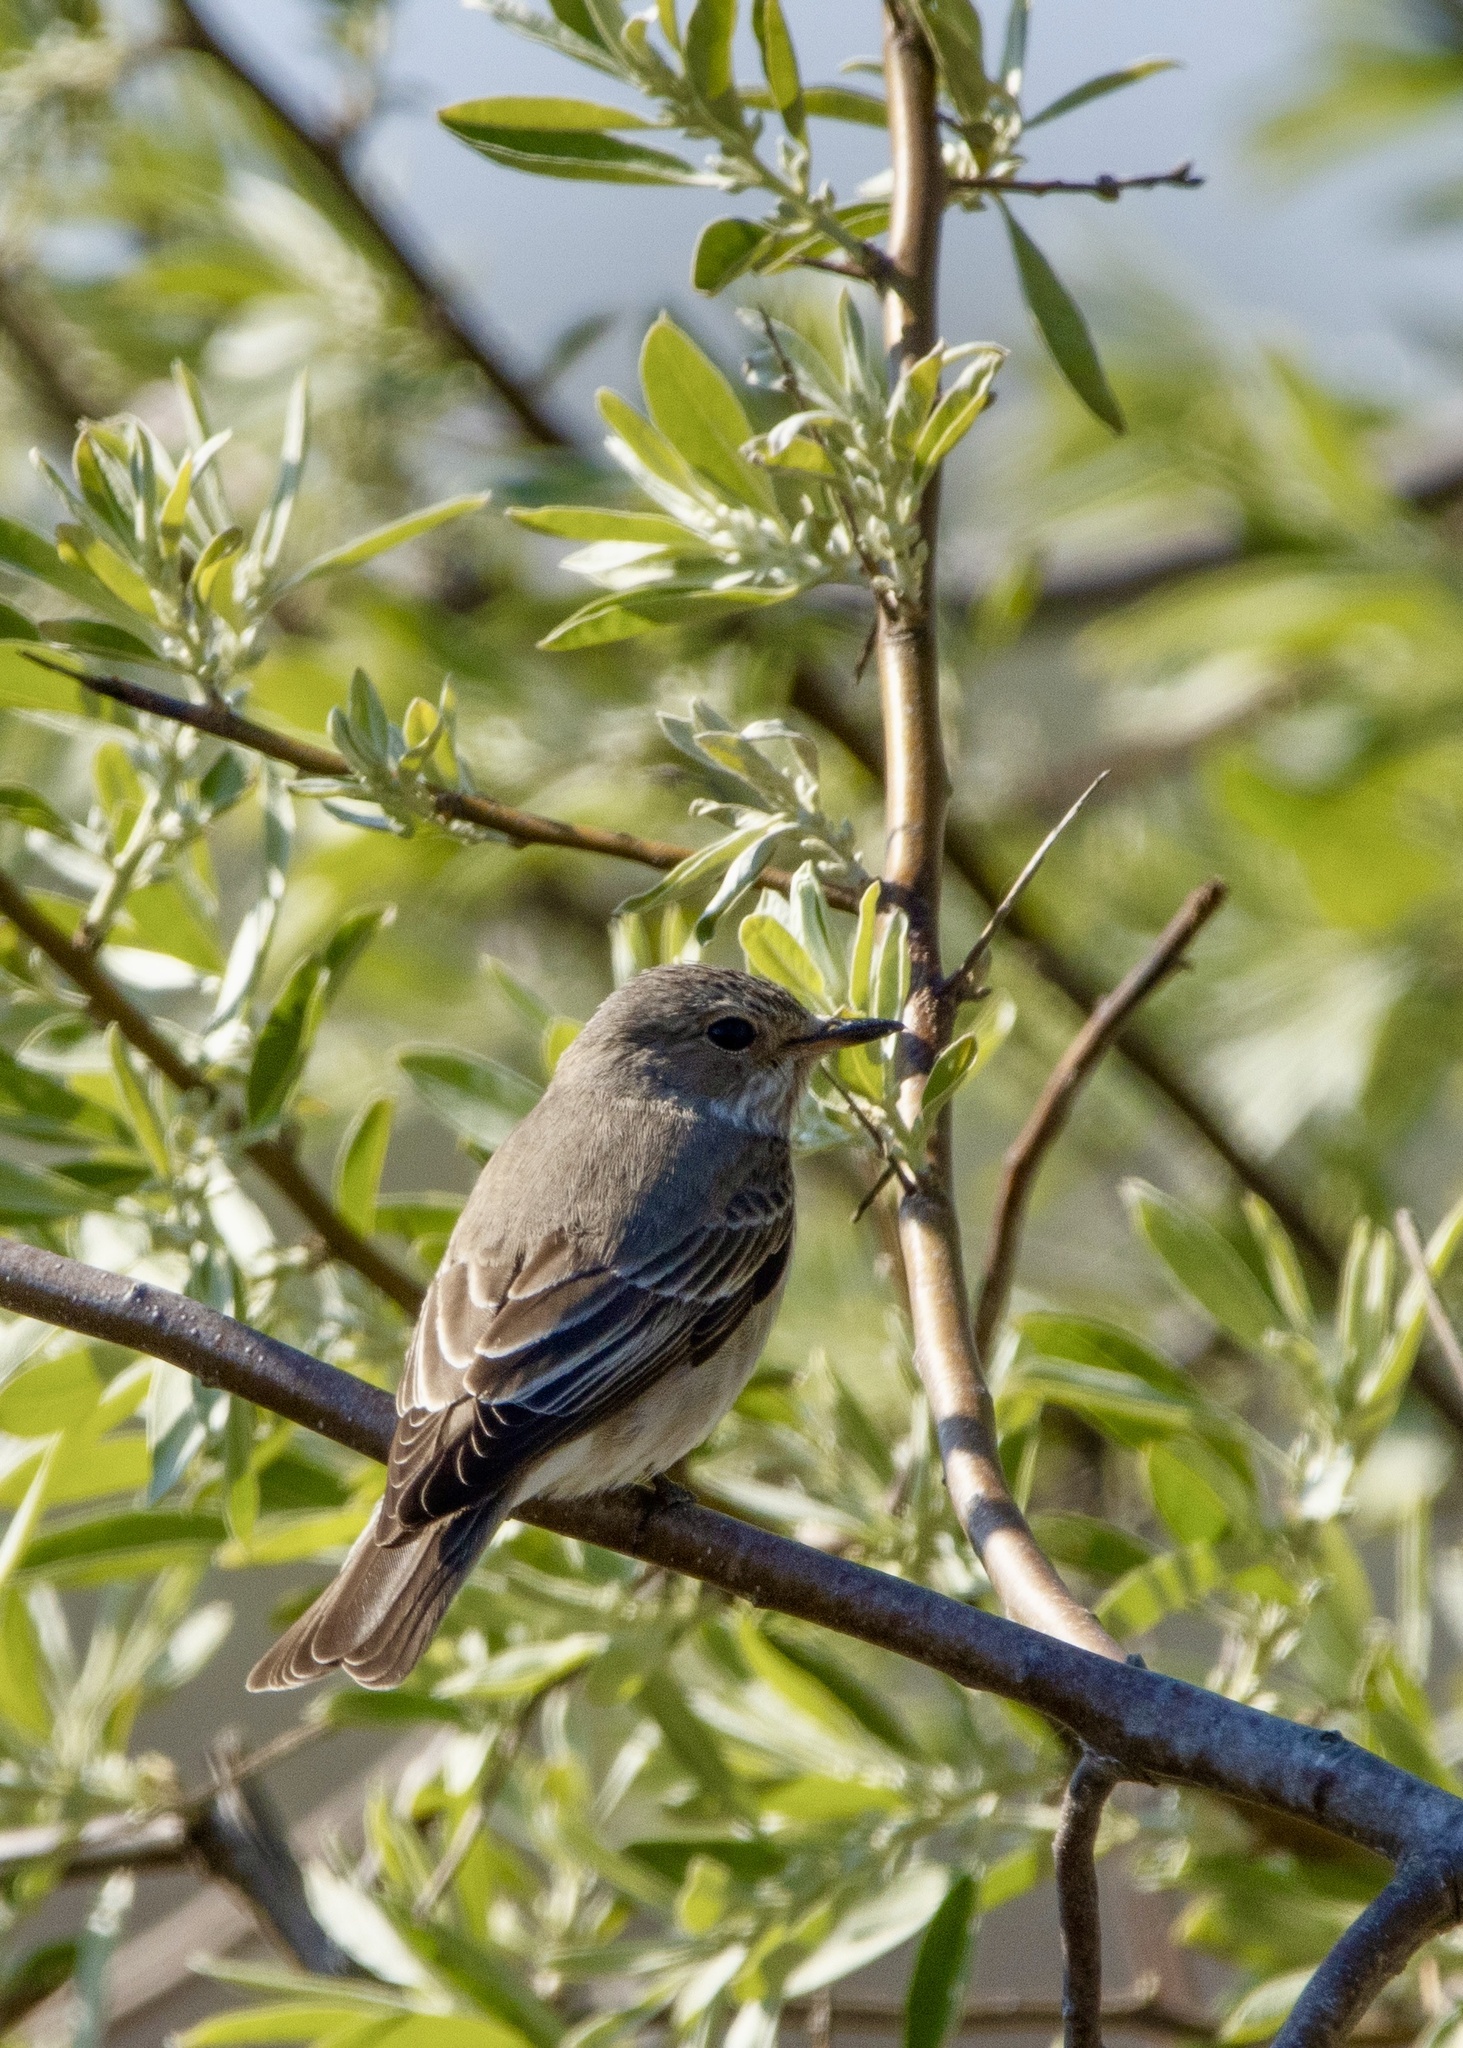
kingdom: Animalia
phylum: Chordata
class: Aves
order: Passeriformes
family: Muscicapidae
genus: Muscicapa
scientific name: Muscicapa striata
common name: Spotted flycatcher
